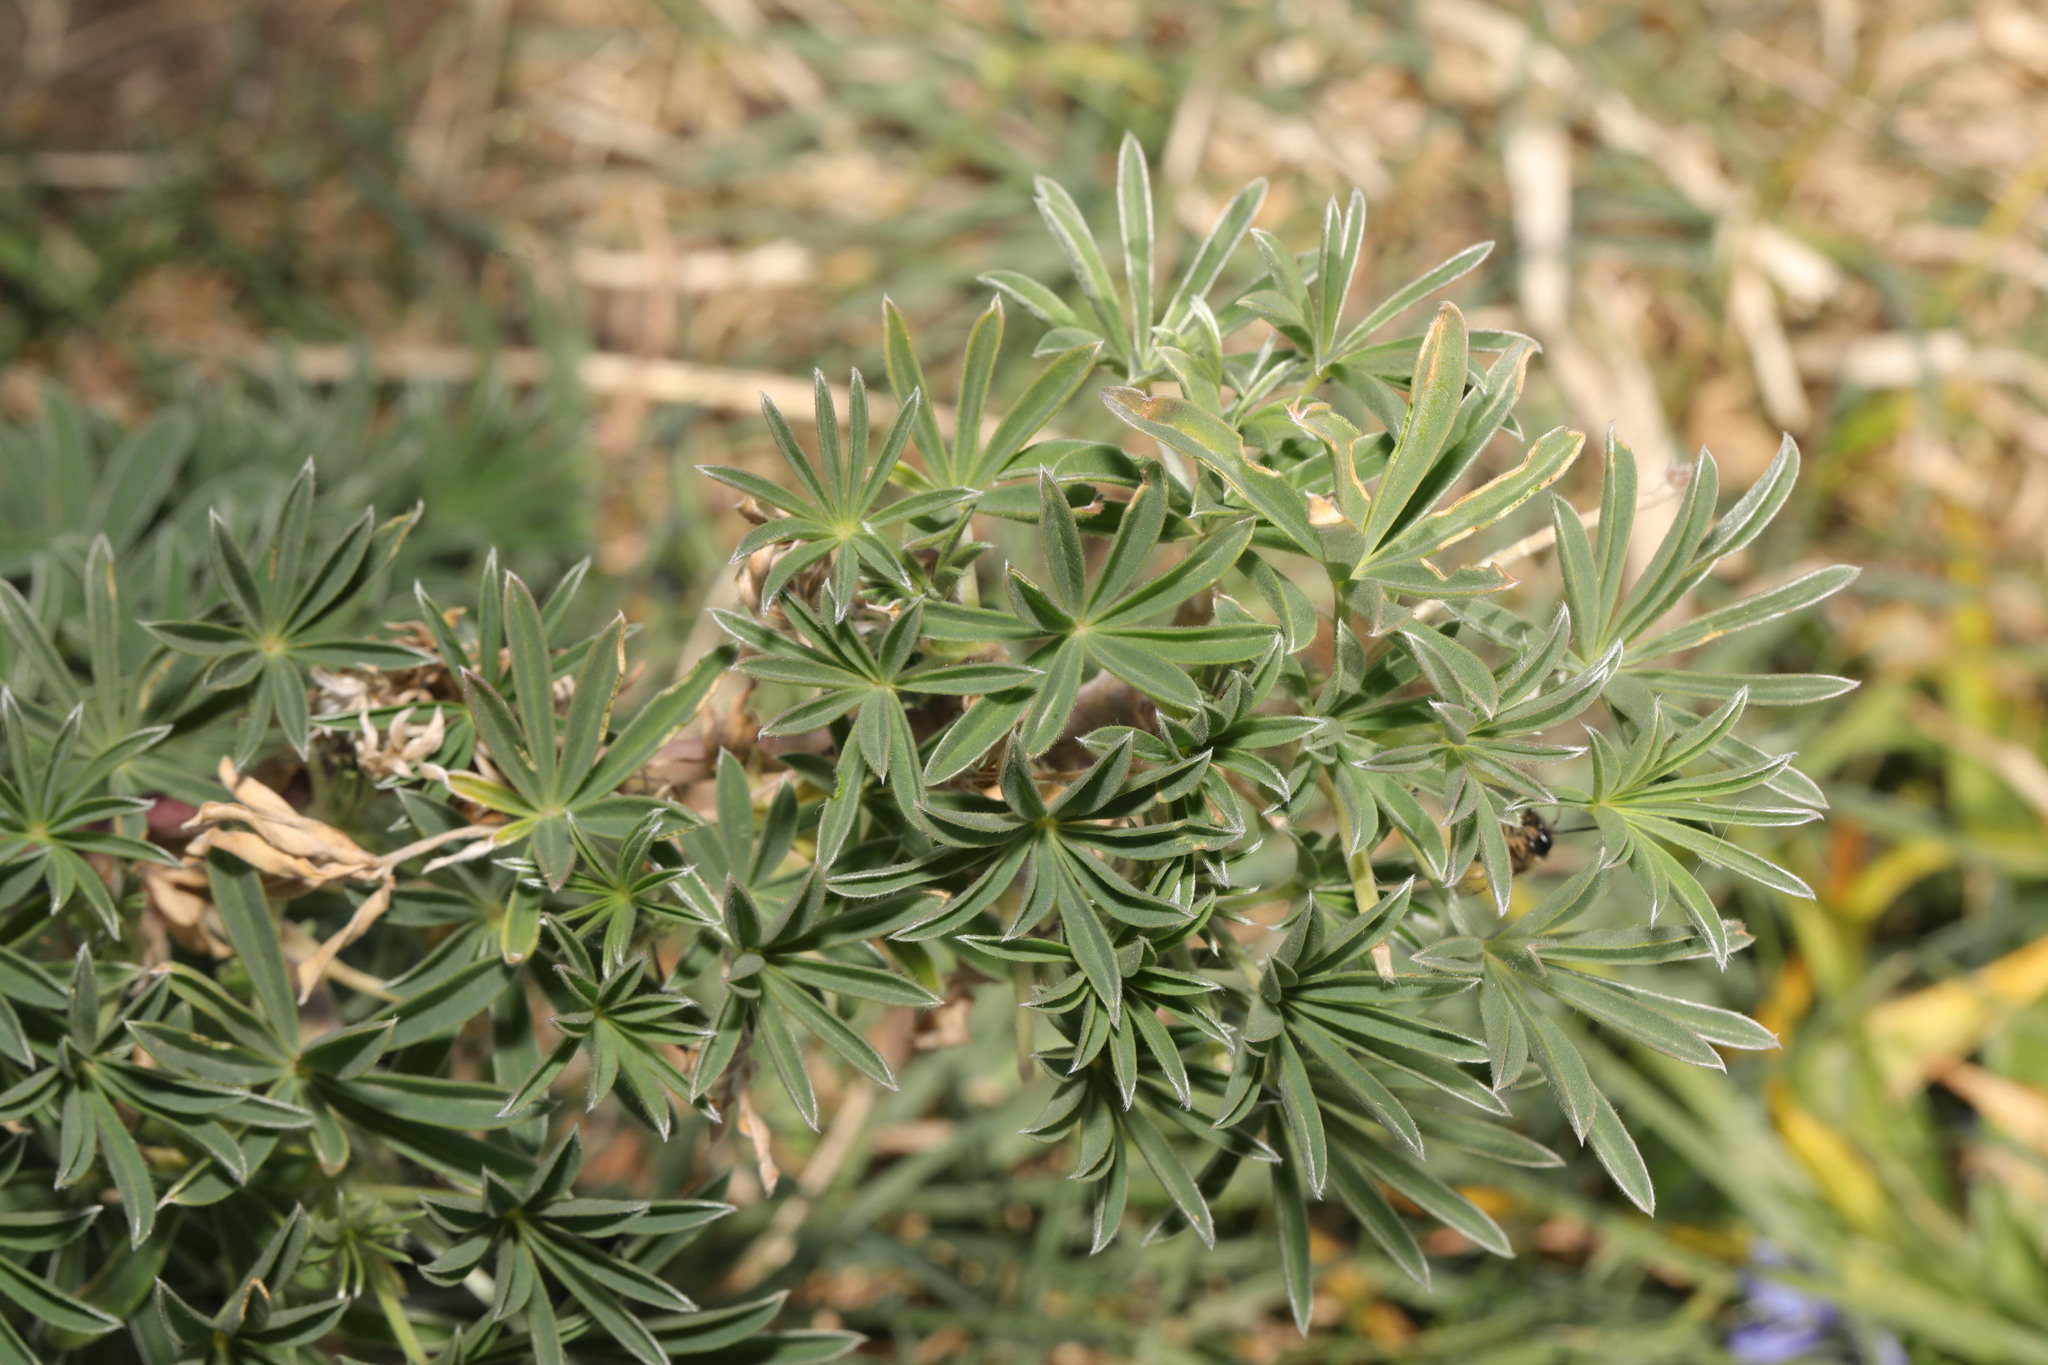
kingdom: Plantae
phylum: Tracheophyta
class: Magnoliopsida
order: Fabales
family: Fabaceae
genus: Lupinus
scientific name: Lupinus arboreus
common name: Yellow bush lupine
